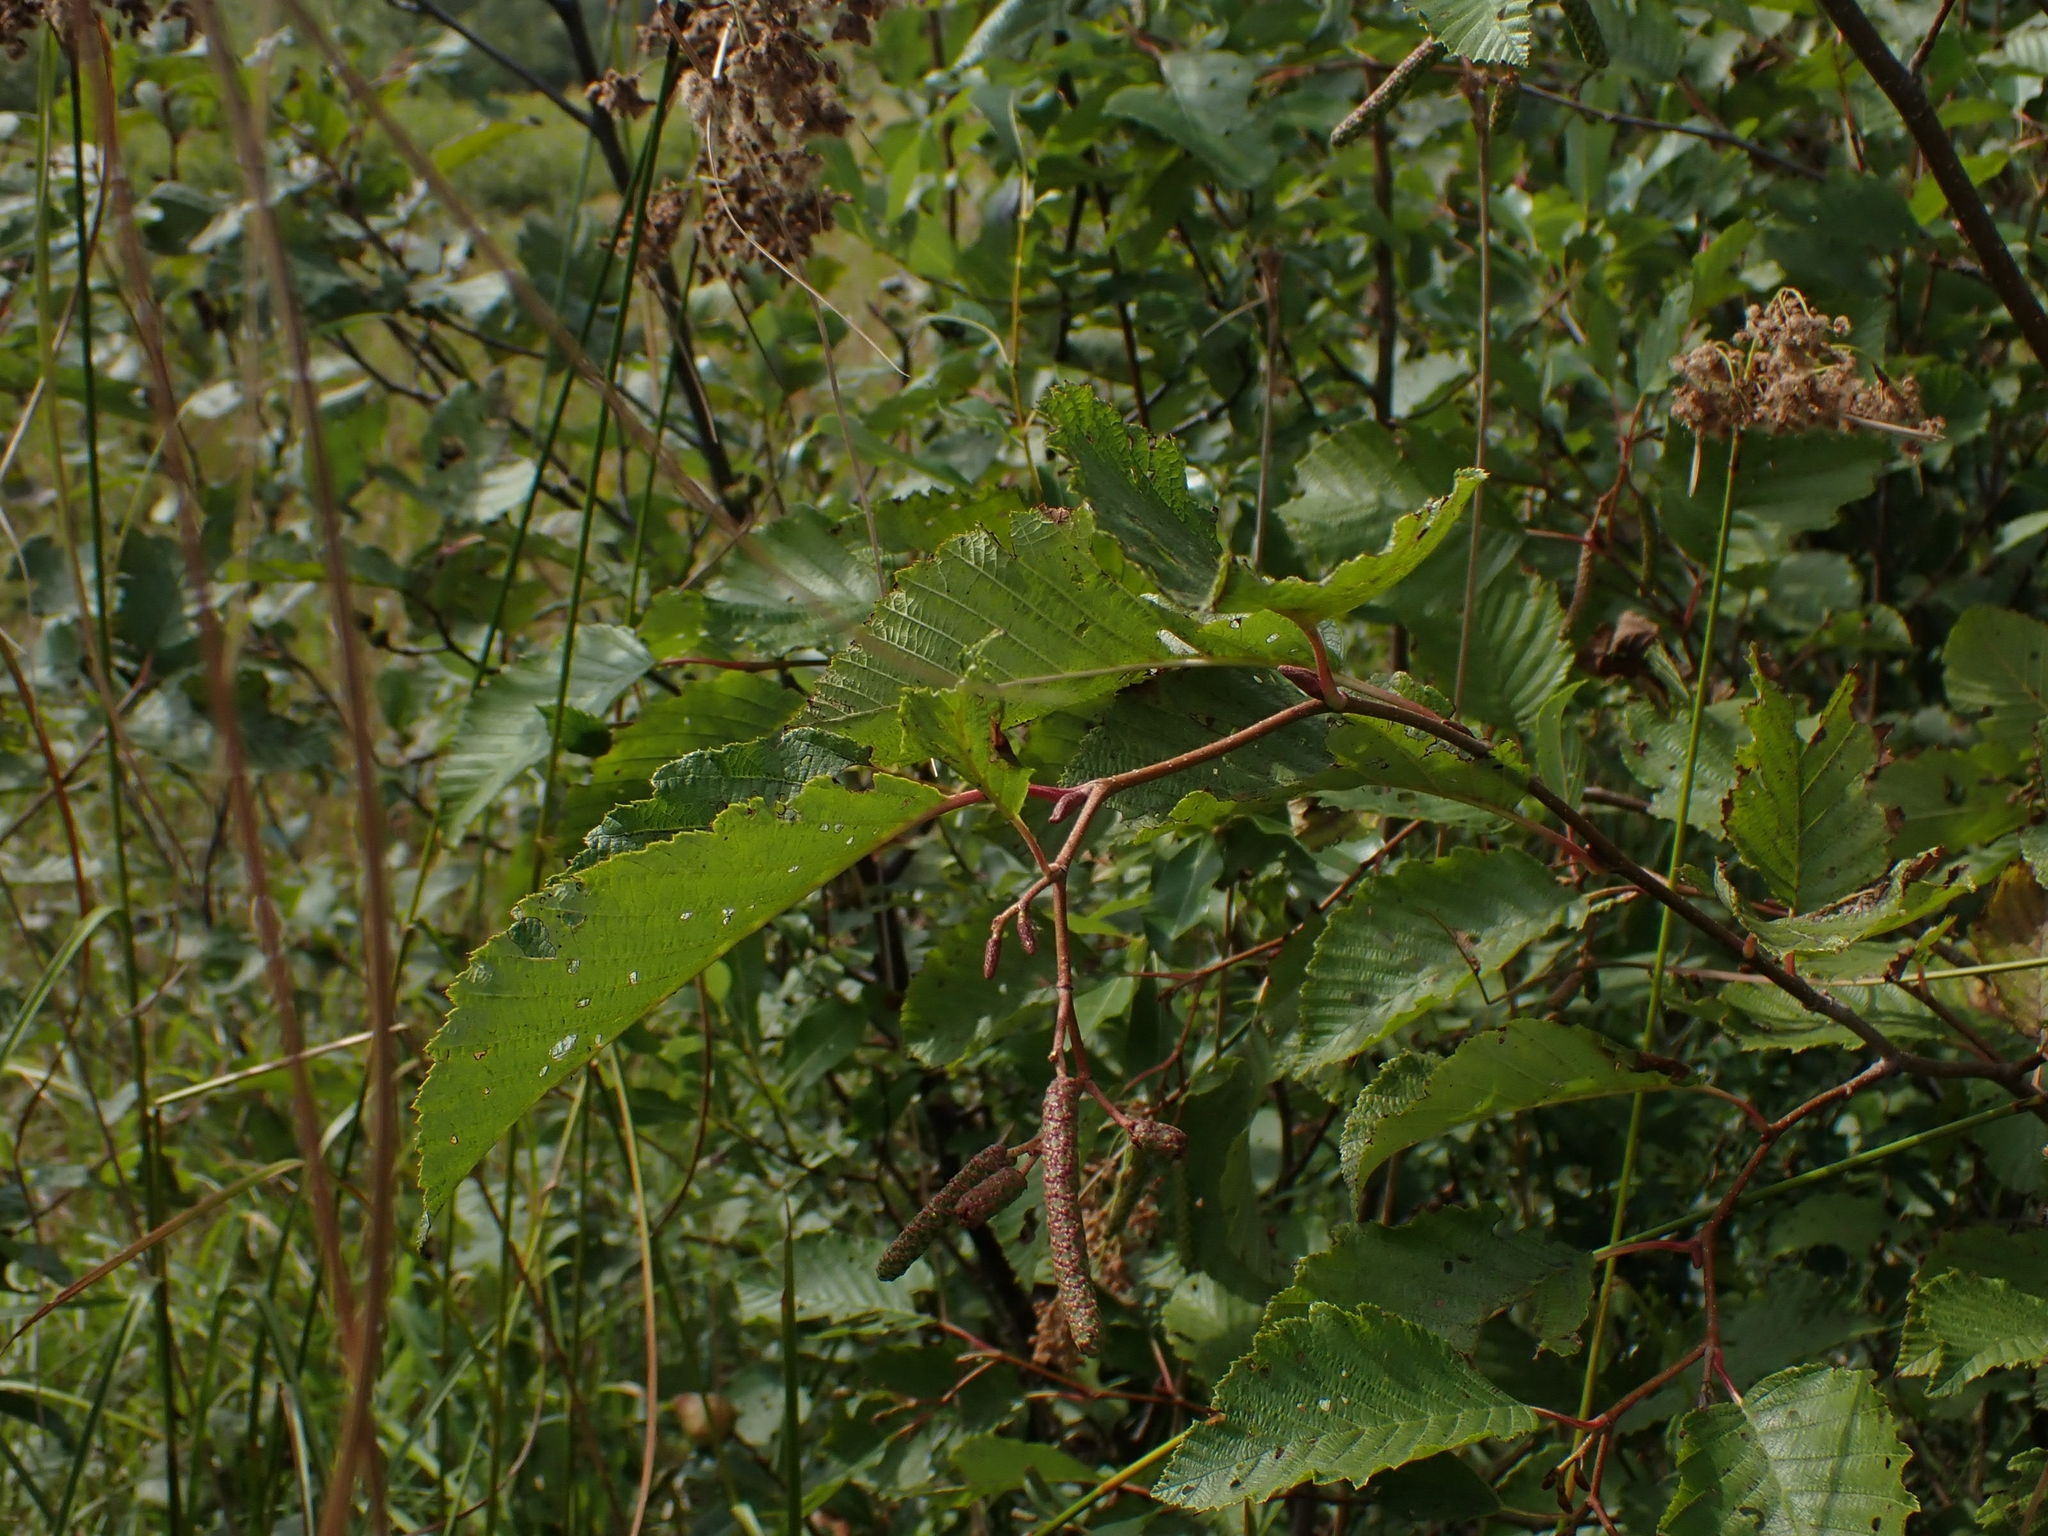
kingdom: Plantae
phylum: Tracheophyta
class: Magnoliopsida
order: Fagales
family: Betulaceae
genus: Alnus
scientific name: Alnus alnobetula
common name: Green alder
